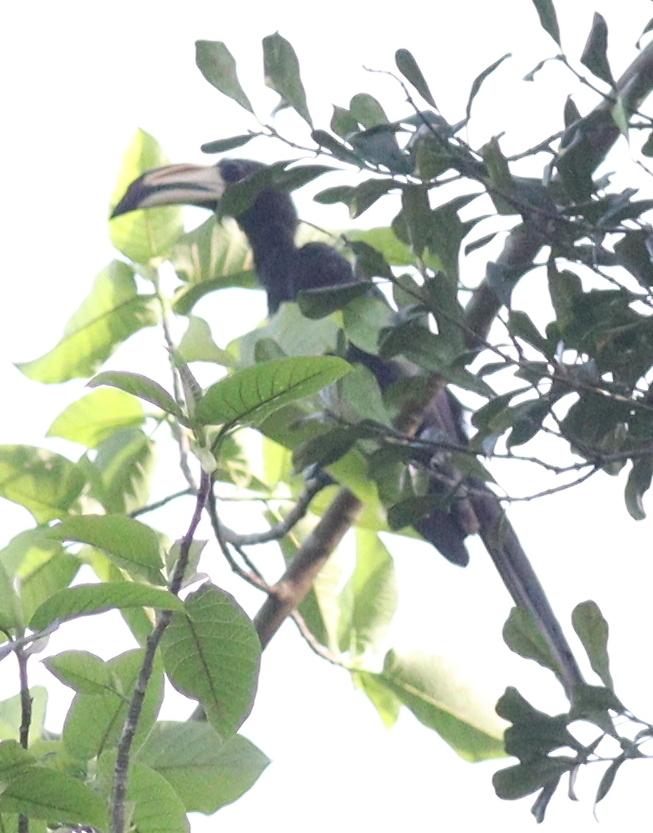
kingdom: Animalia
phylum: Chordata
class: Aves
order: Bucerotiformes
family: Bucerotidae
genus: Lophoceros
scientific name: Lophoceros fasciatus
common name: African pied hornbill
